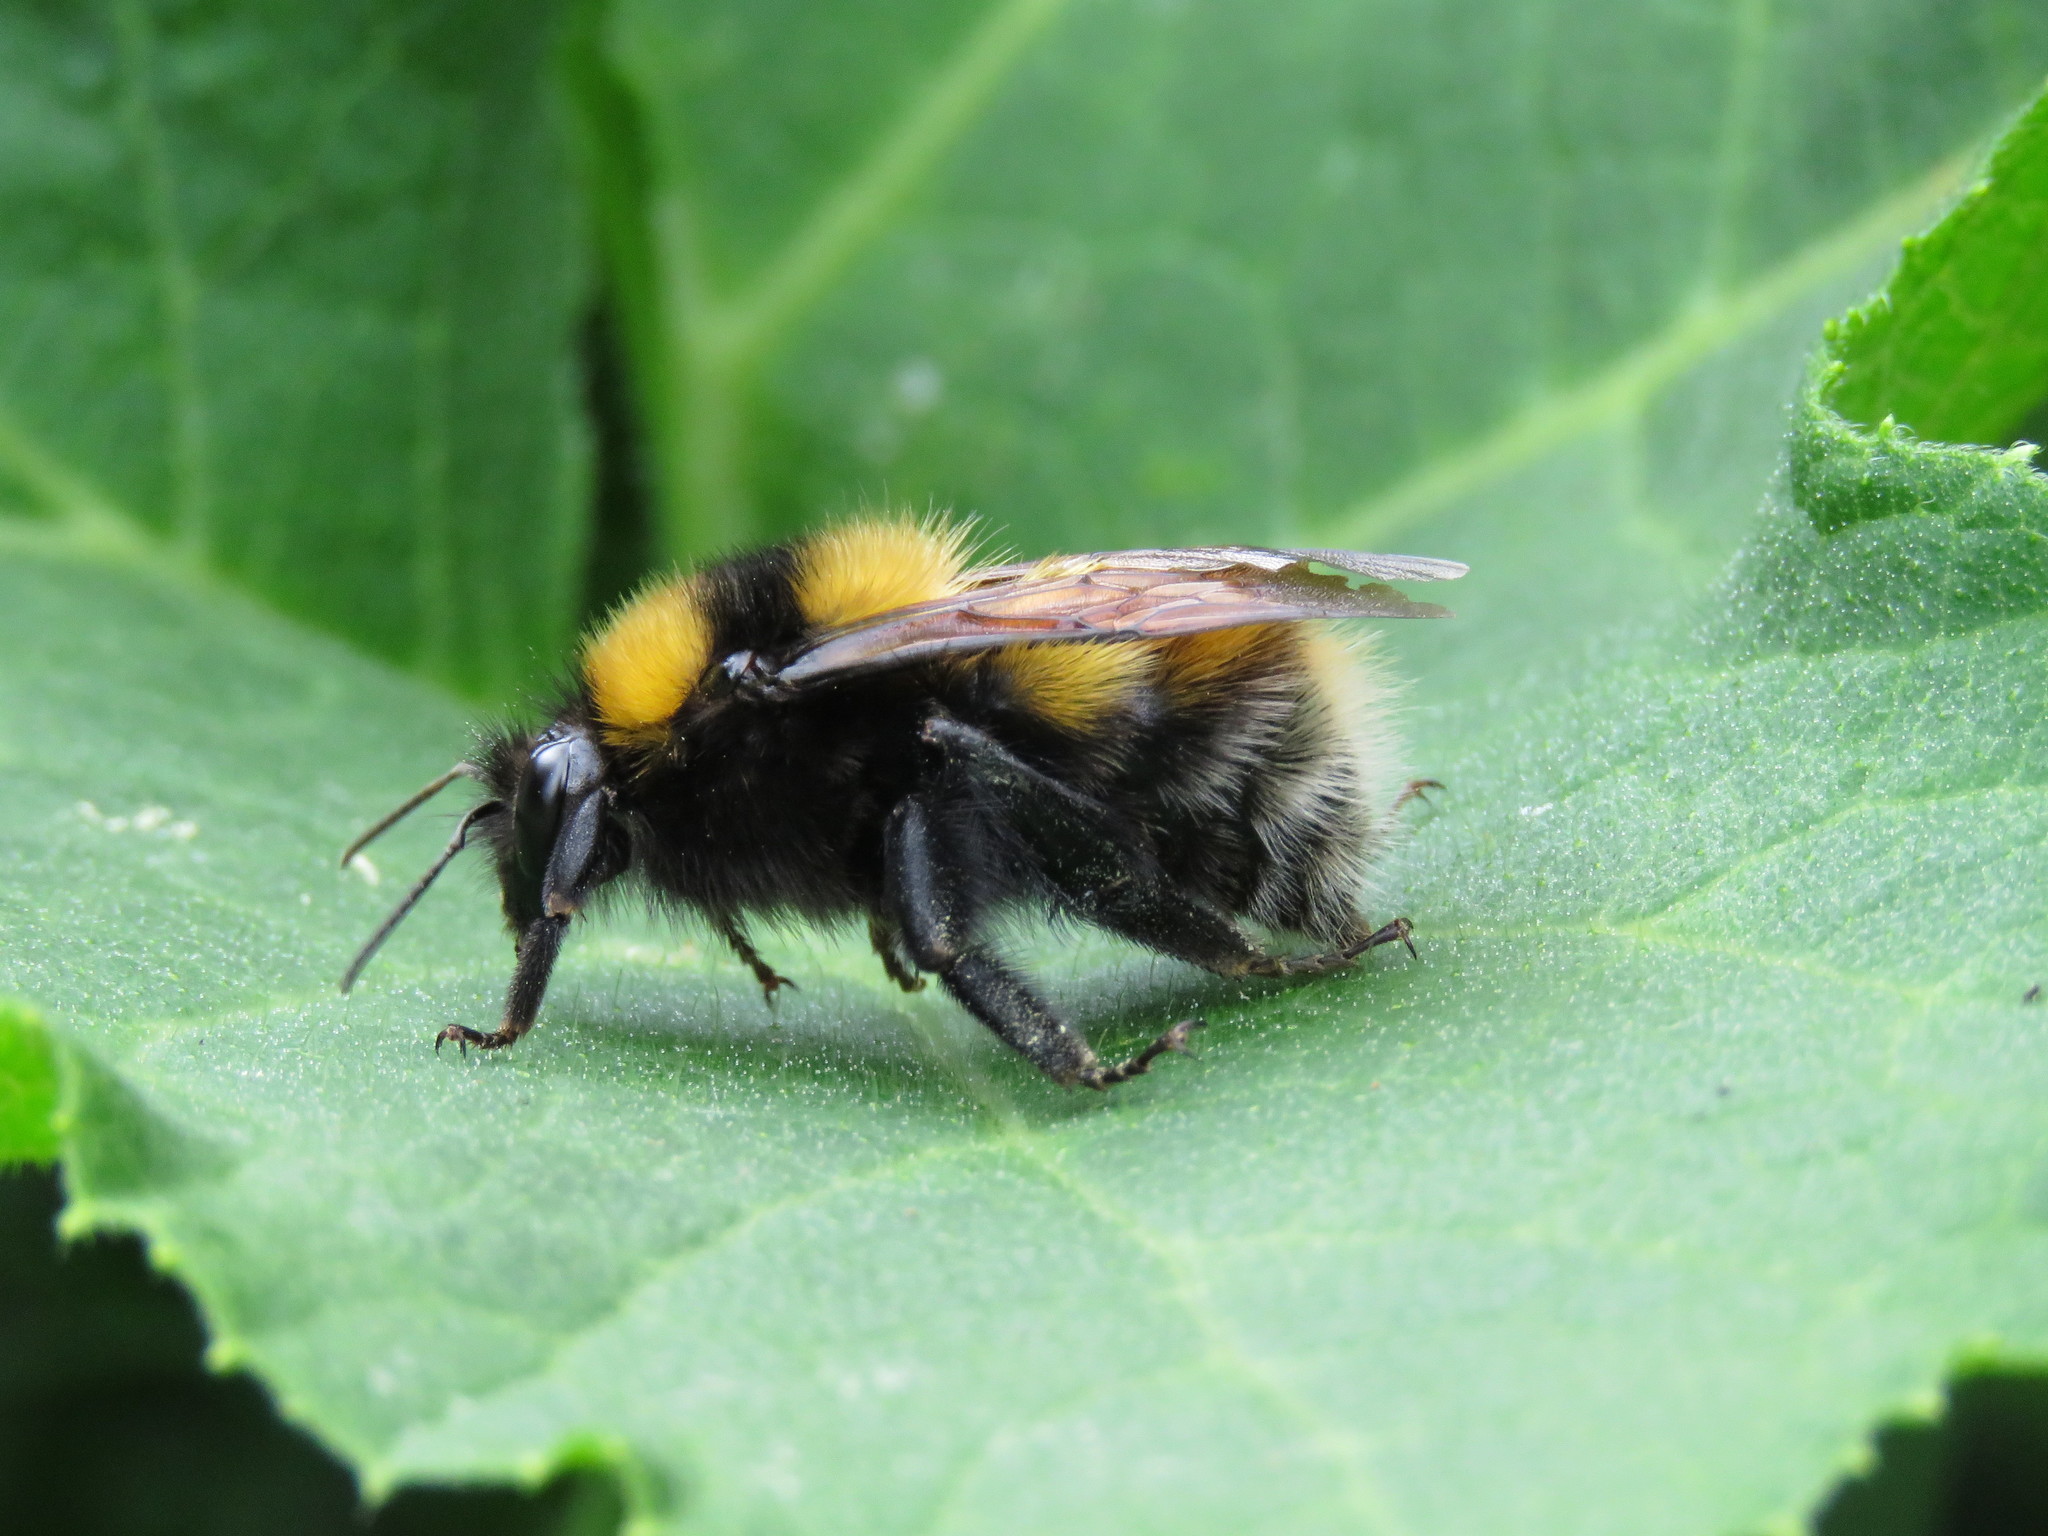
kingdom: Animalia
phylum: Arthropoda
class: Insecta
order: Hymenoptera
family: Apidae
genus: Bombus
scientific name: Bombus hortulanus
